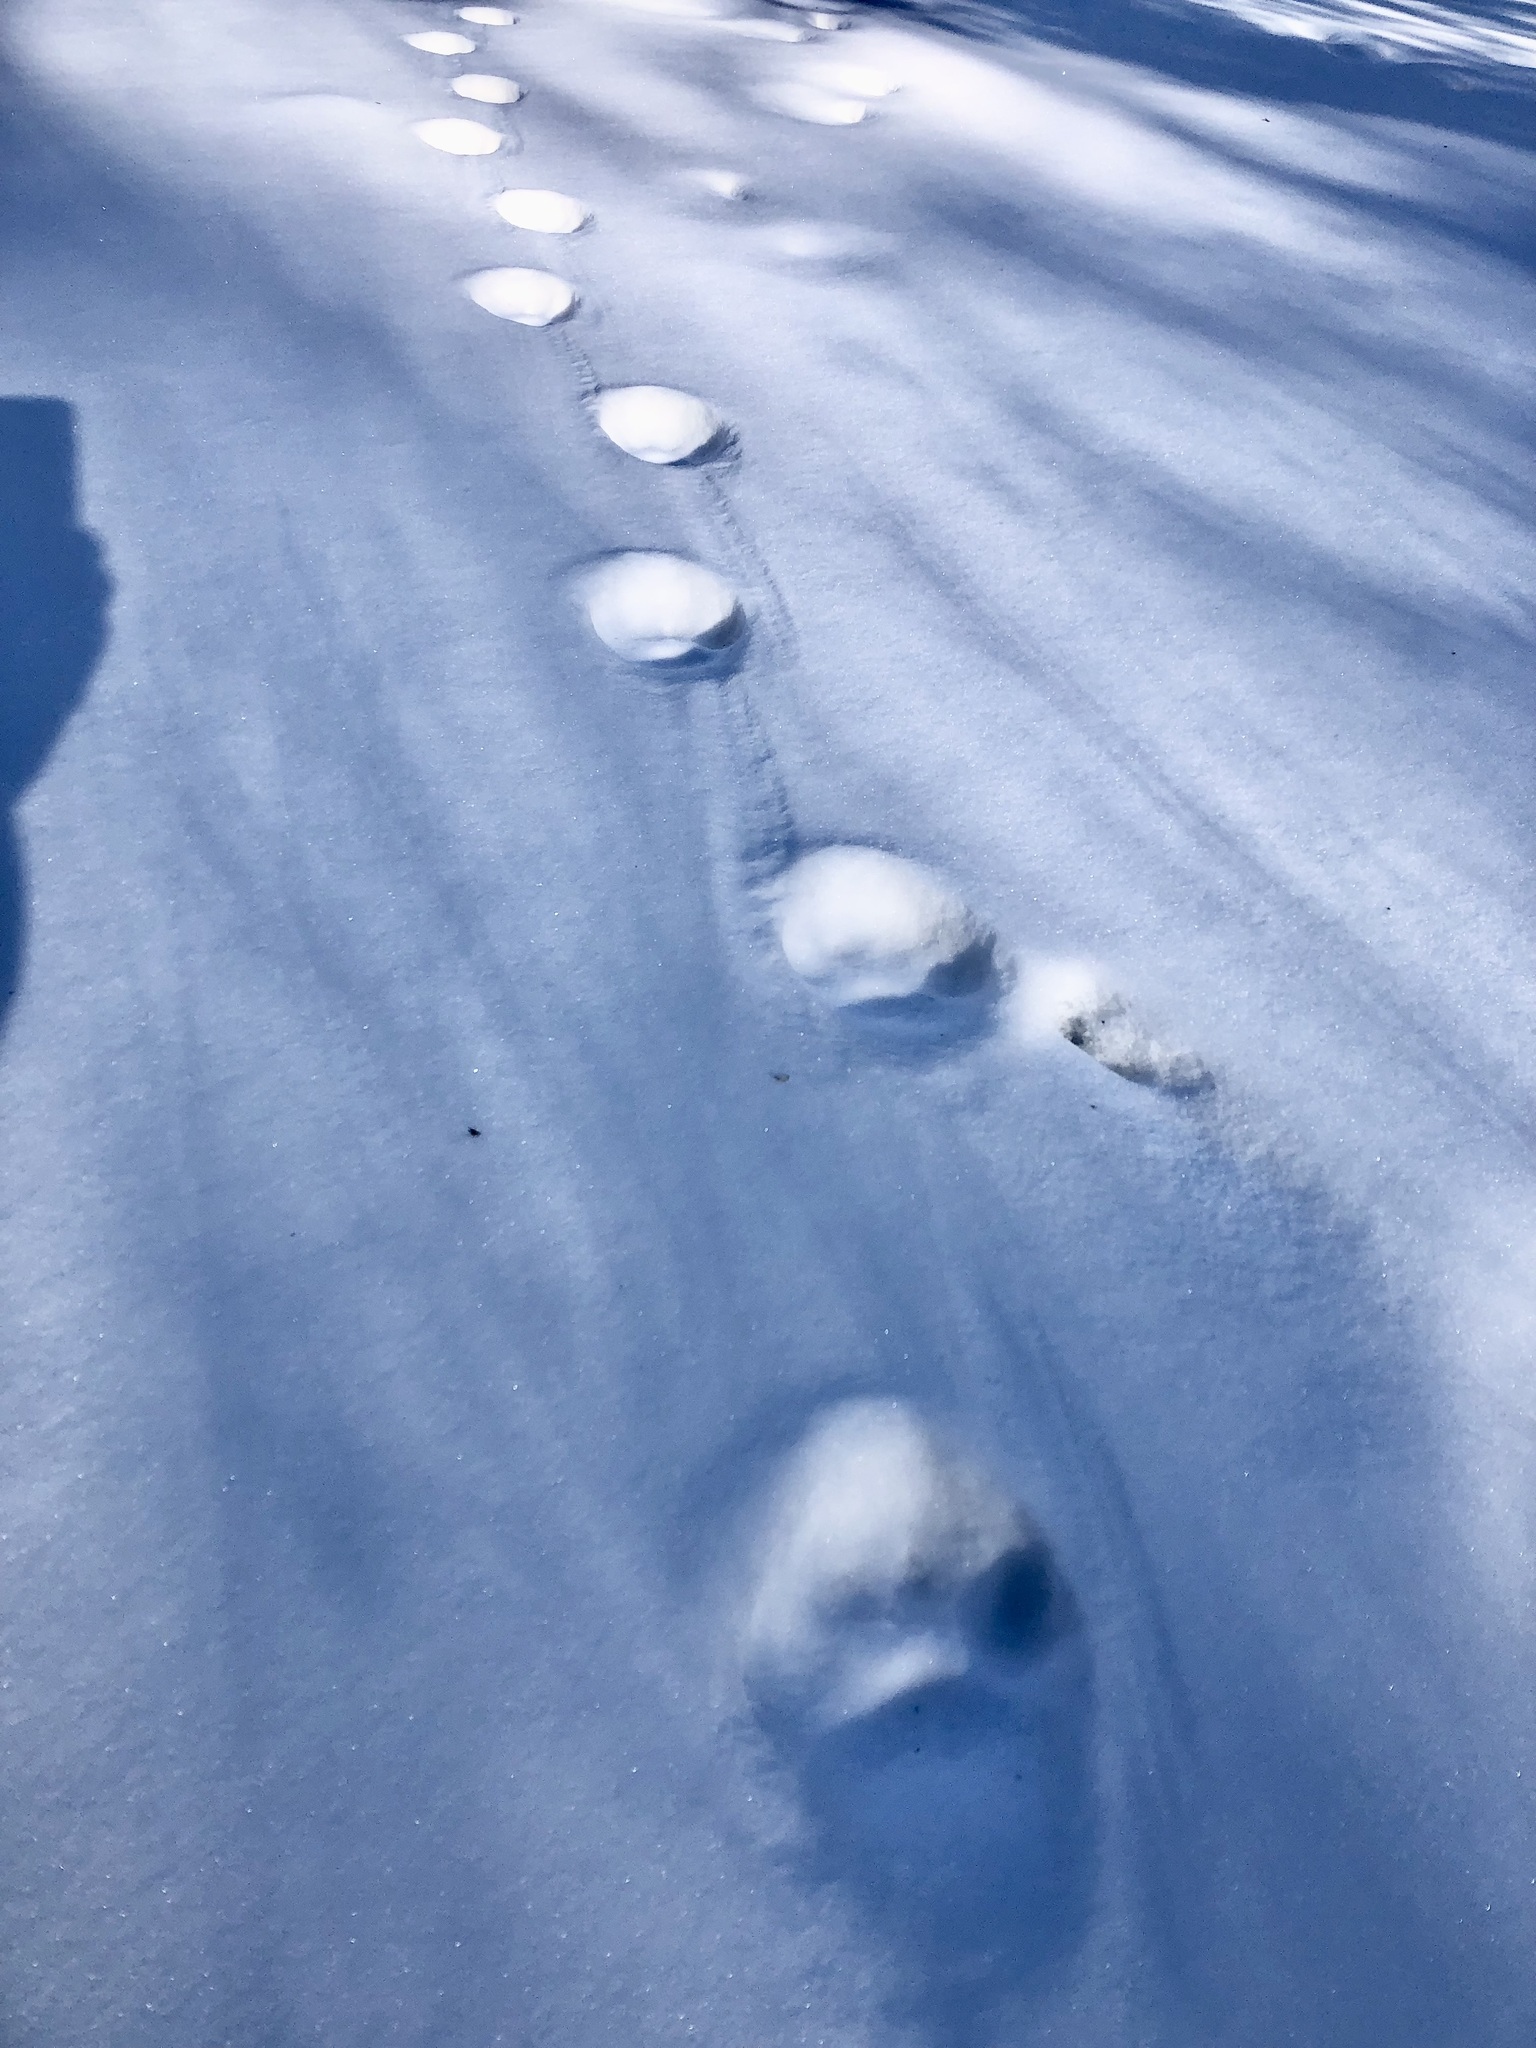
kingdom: Animalia
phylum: Chordata
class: Mammalia
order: Carnivora
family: Felidae
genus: Lynx
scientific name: Lynx canadensis
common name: Canadian lynx
